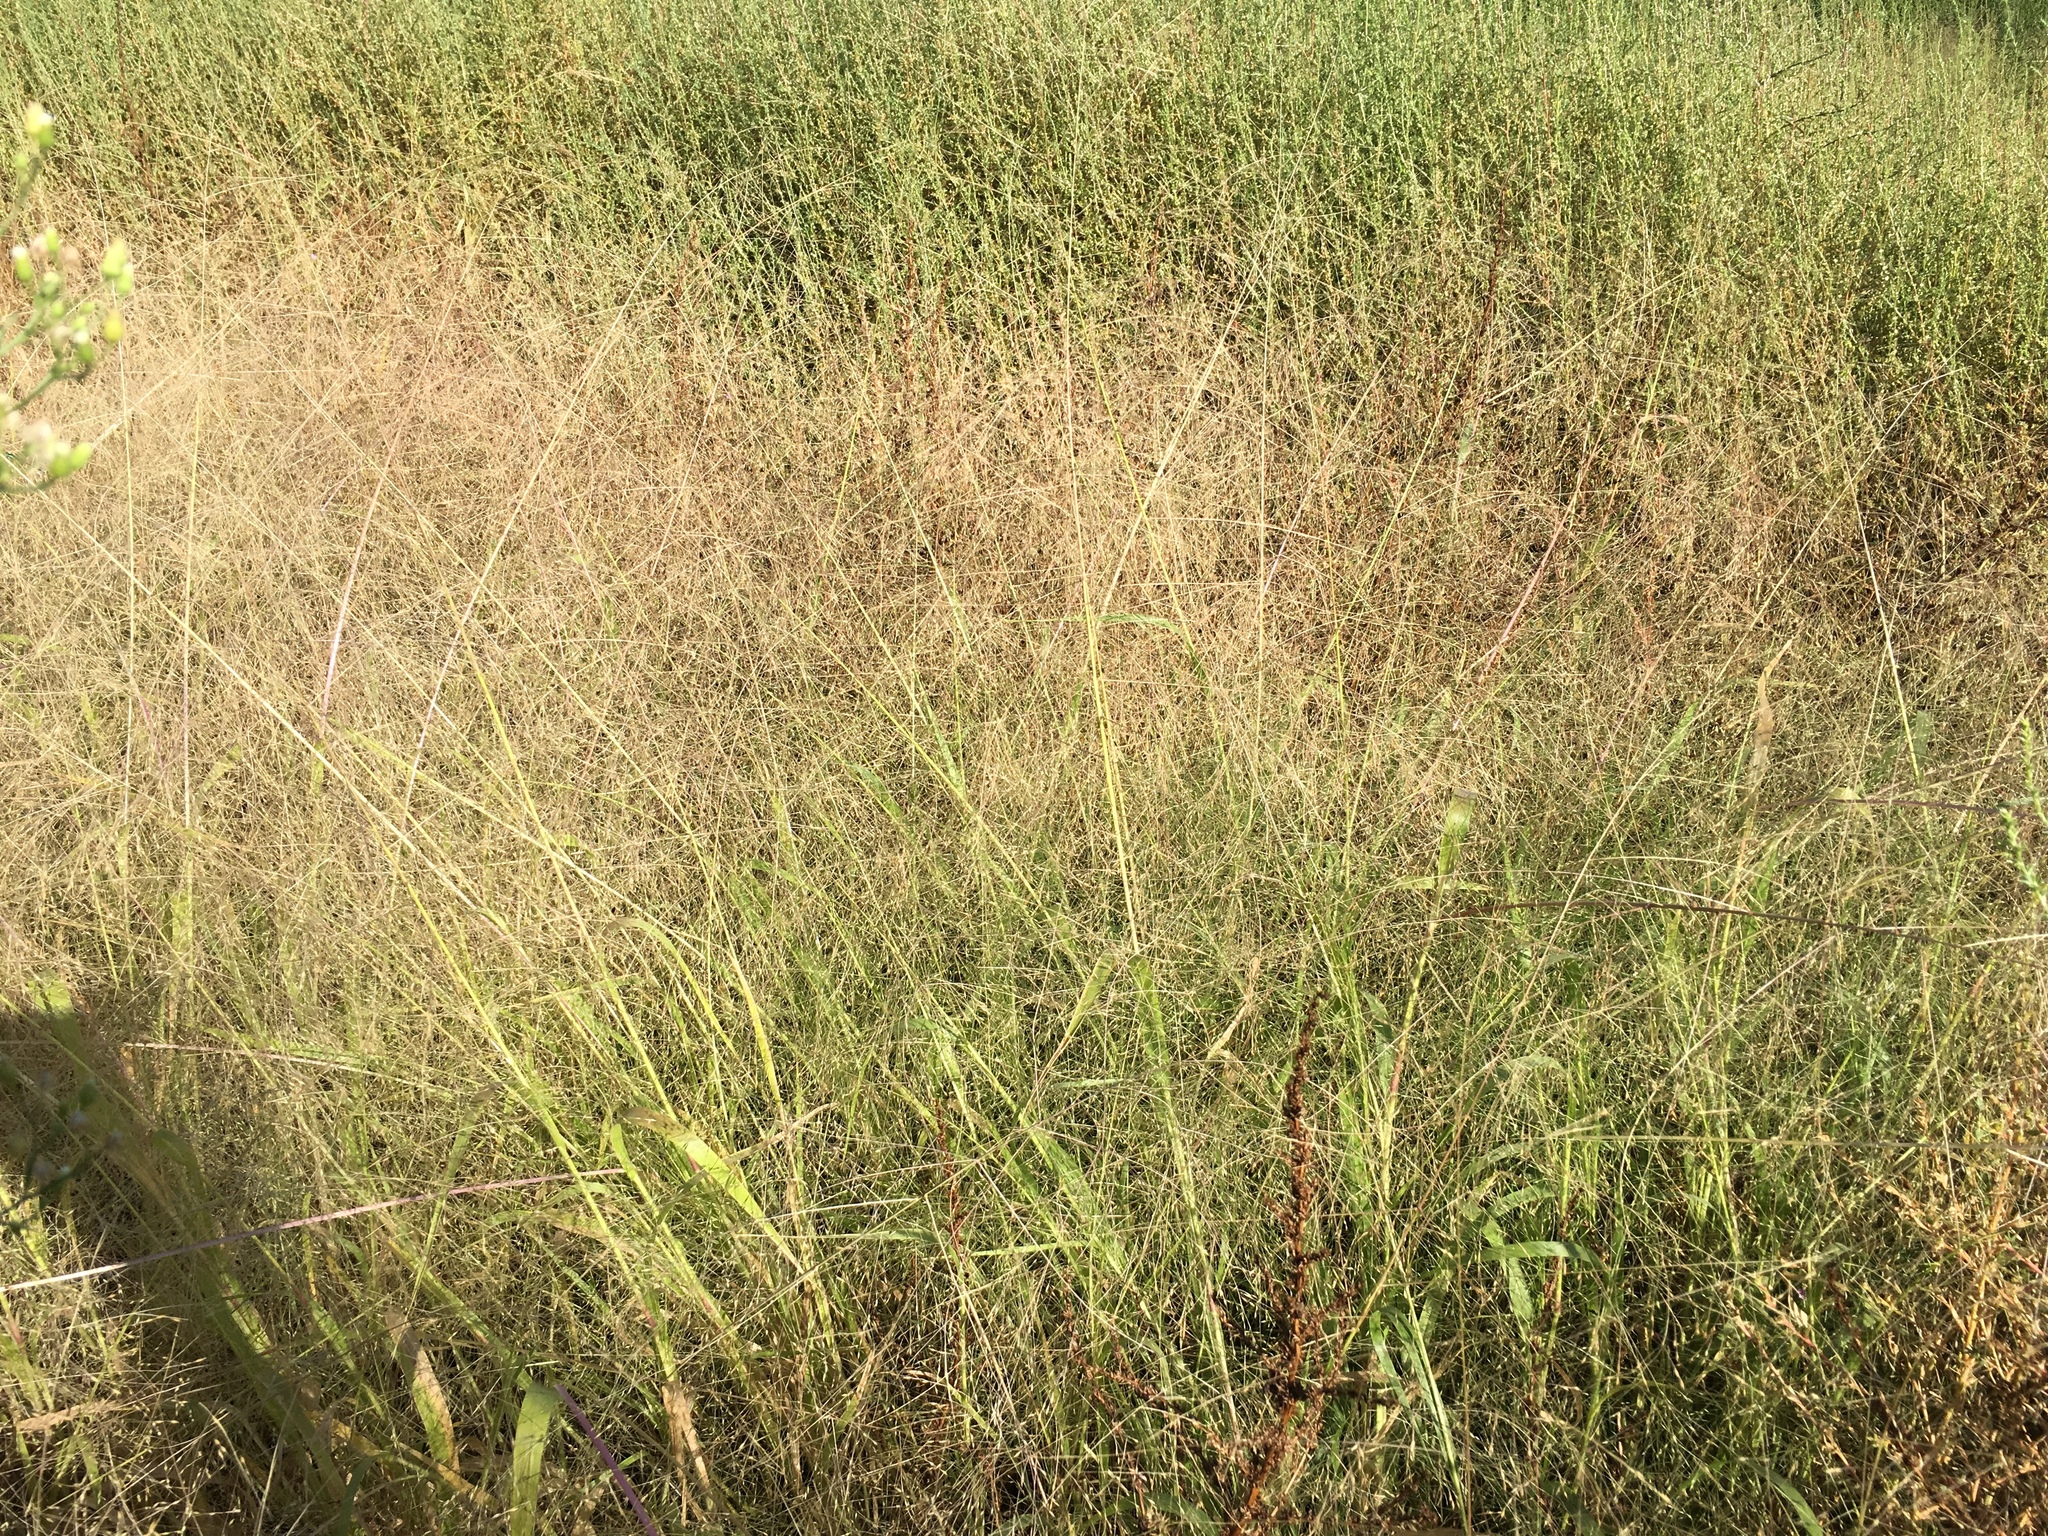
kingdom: Plantae
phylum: Tracheophyta
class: Liliopsida
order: Poales
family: Poaceae
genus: Panicum
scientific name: Panicum capillare
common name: Witch-grass
